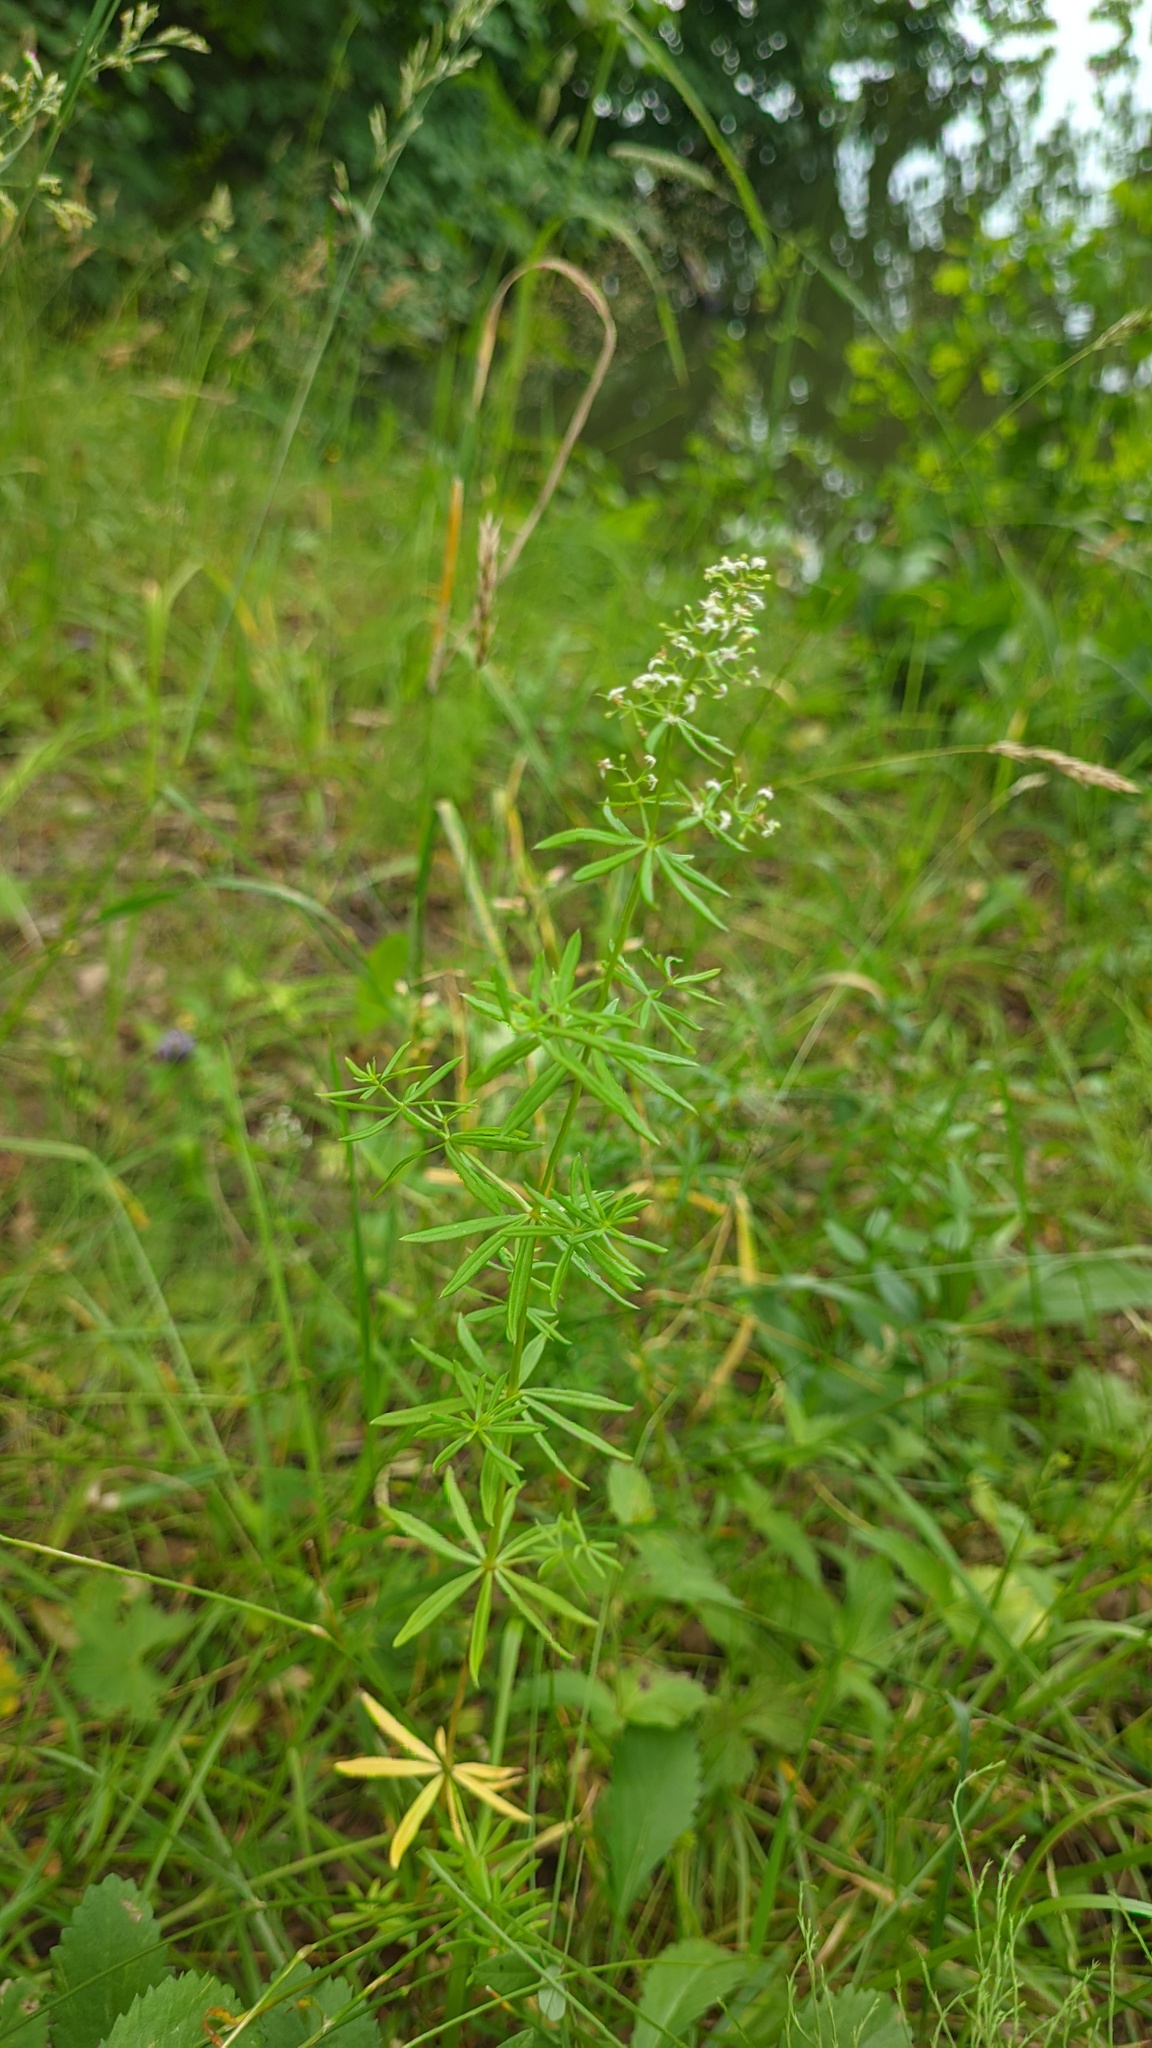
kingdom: Plantae
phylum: Tracheophyta
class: Magnoliopsida
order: Gentianales
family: Rubiaceae
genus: Galium
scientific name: Galium mollugo
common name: Hedge bedstraw
